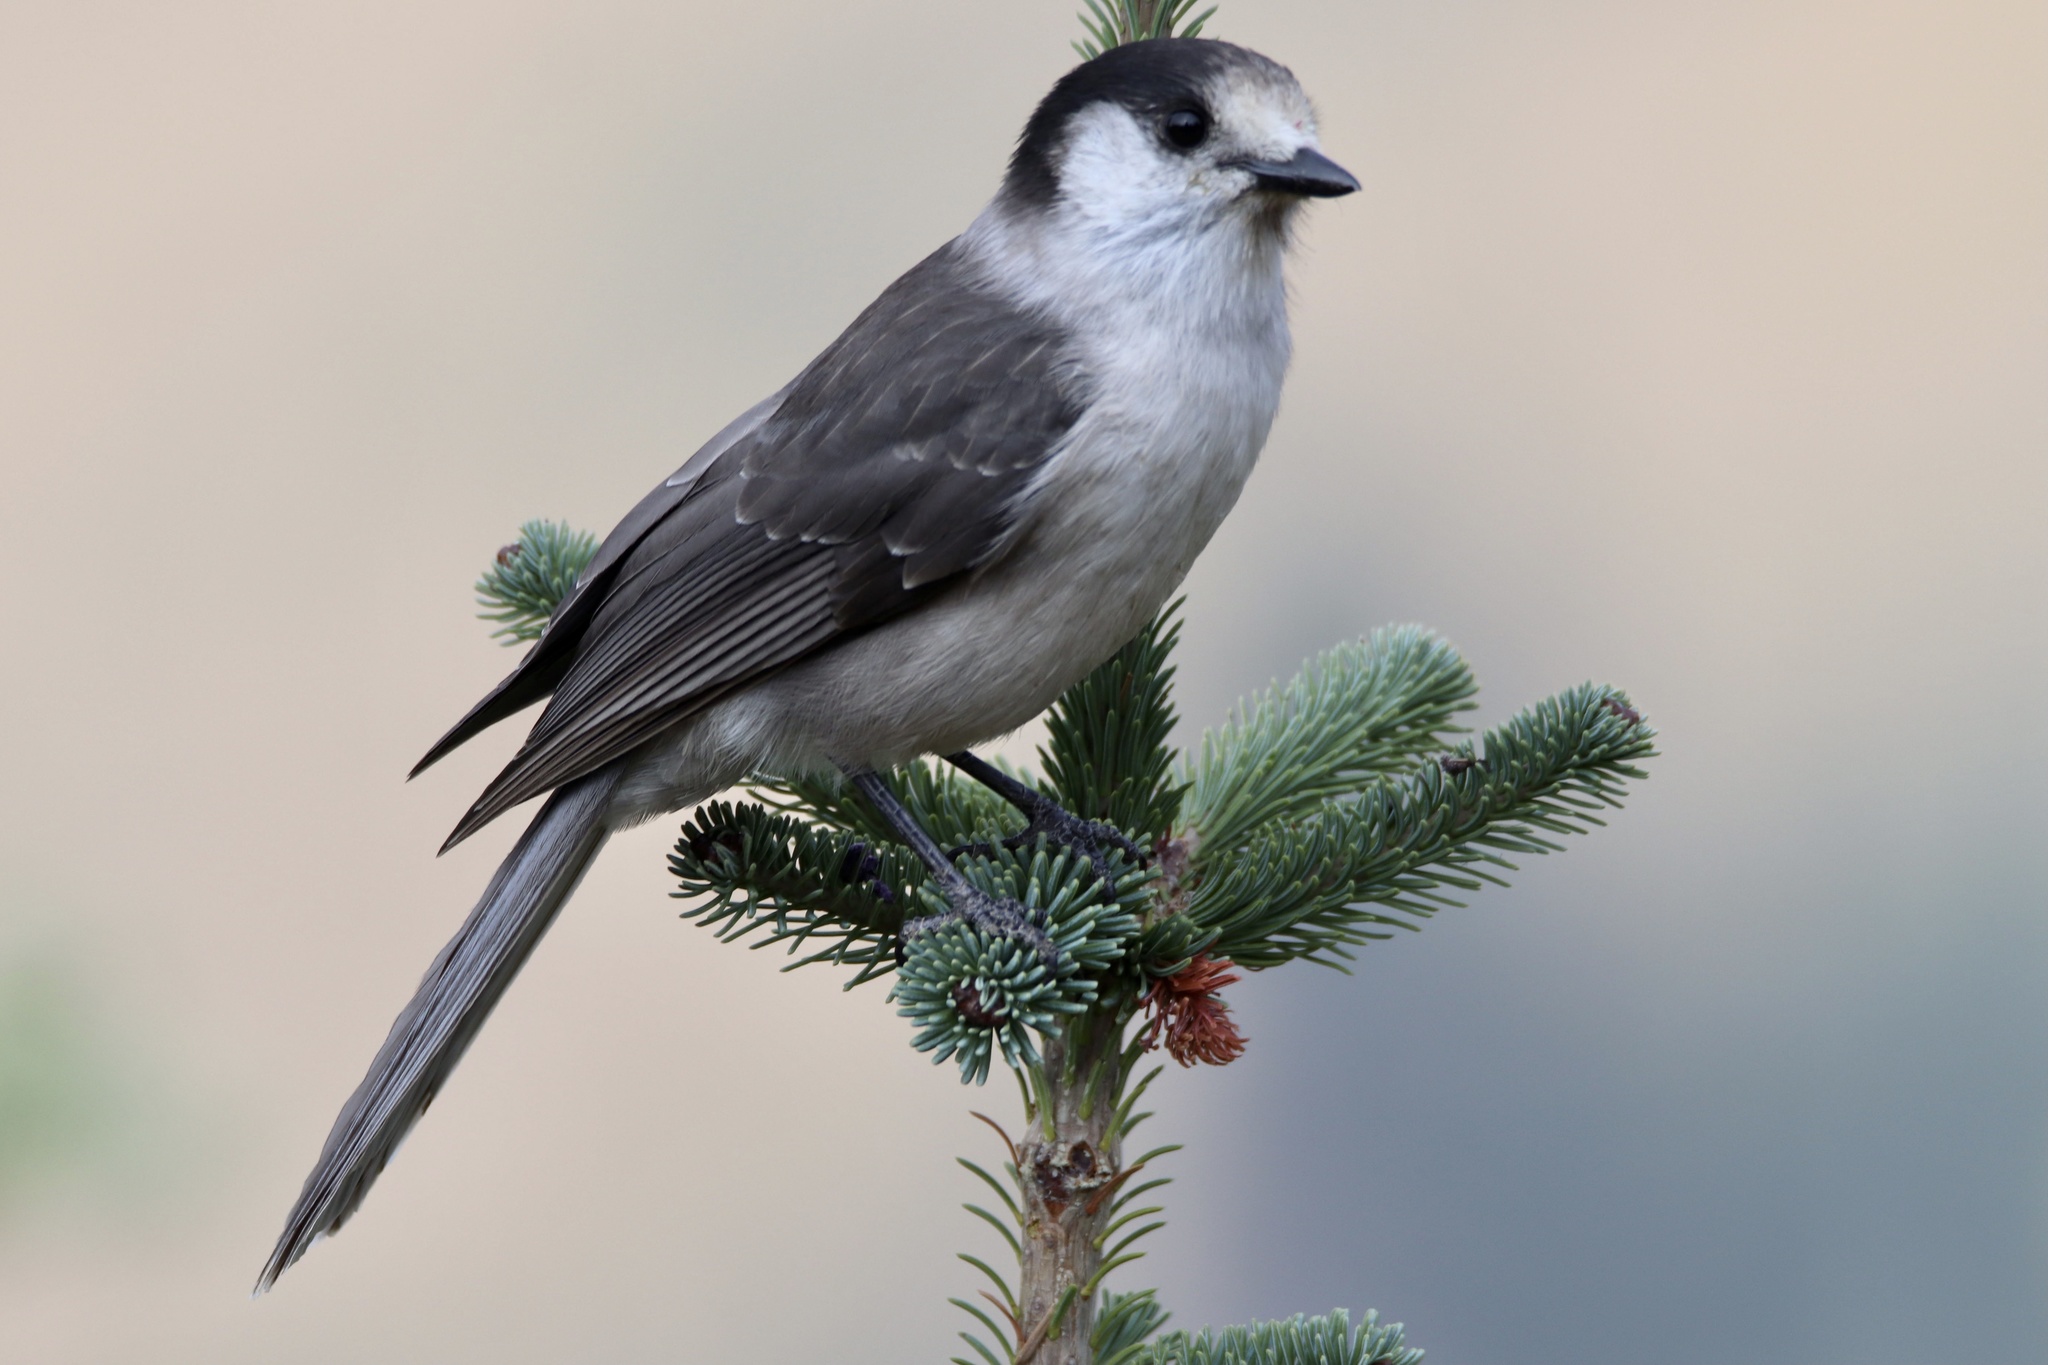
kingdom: Animalia
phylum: Chordata
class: Aves
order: Passeriformes
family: Corvidae
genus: Perisoreus
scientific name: Perisoreus canadensis
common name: Gray jay
